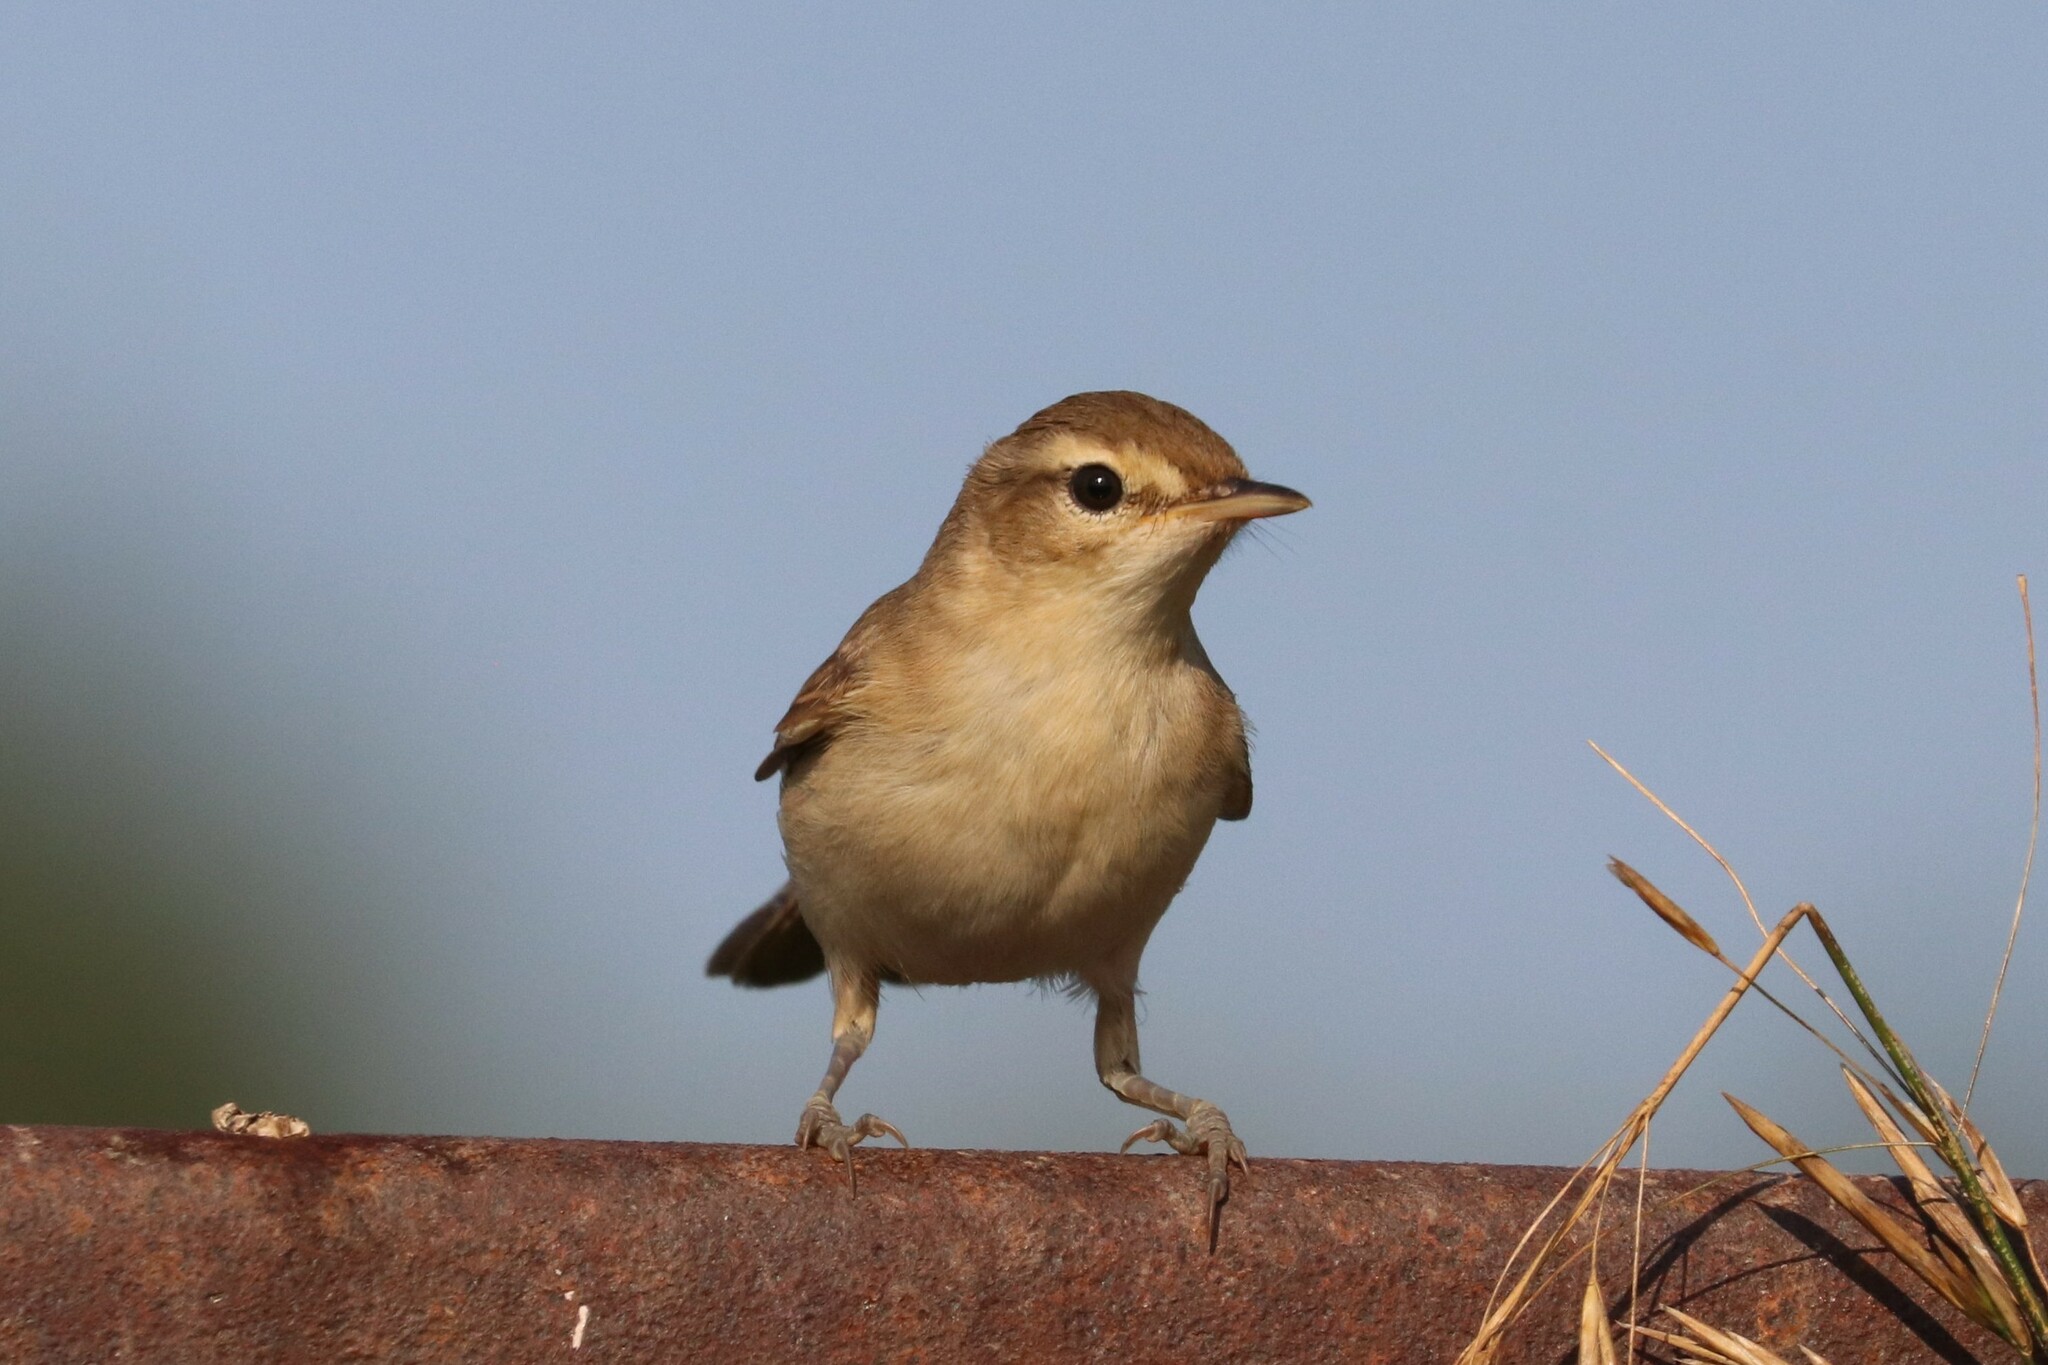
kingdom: Animalia
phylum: Chordata
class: Aves
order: Passeriformes
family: Acrocephalidae
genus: Iduna
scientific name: Iduna caligata
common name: Booted warbler
